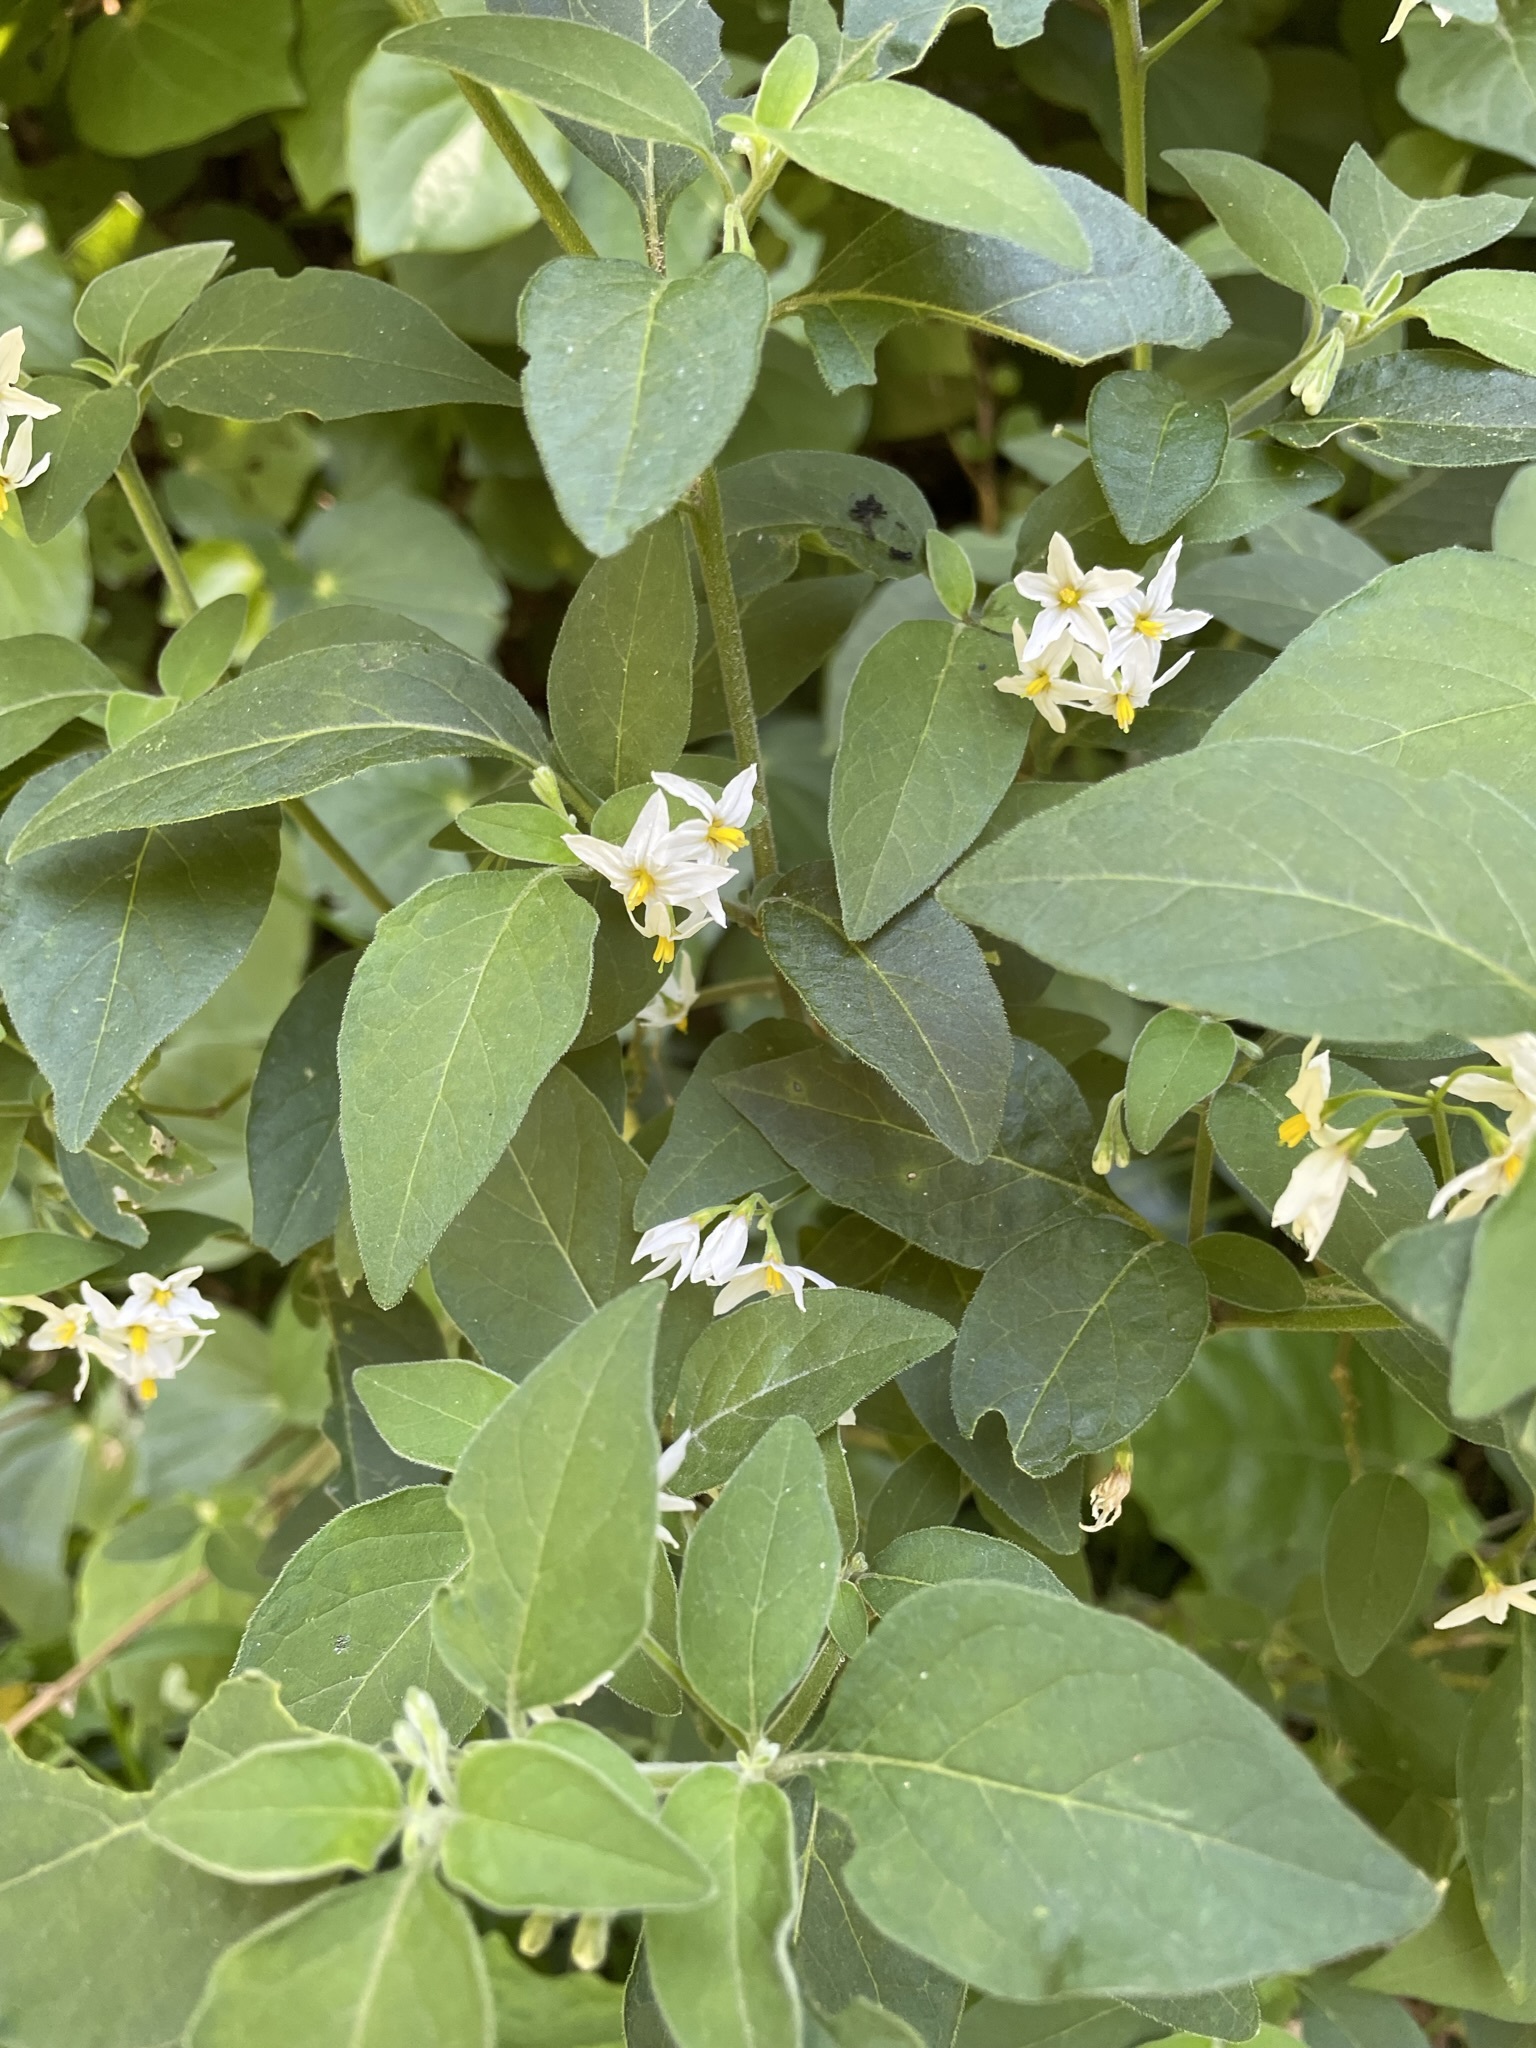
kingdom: Plantae
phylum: Tracheophyta
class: Magnoliopsida
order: Solanales
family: Solanaceae
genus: Solanum
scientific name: Solanum chenopodioides
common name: Tall nightshade
